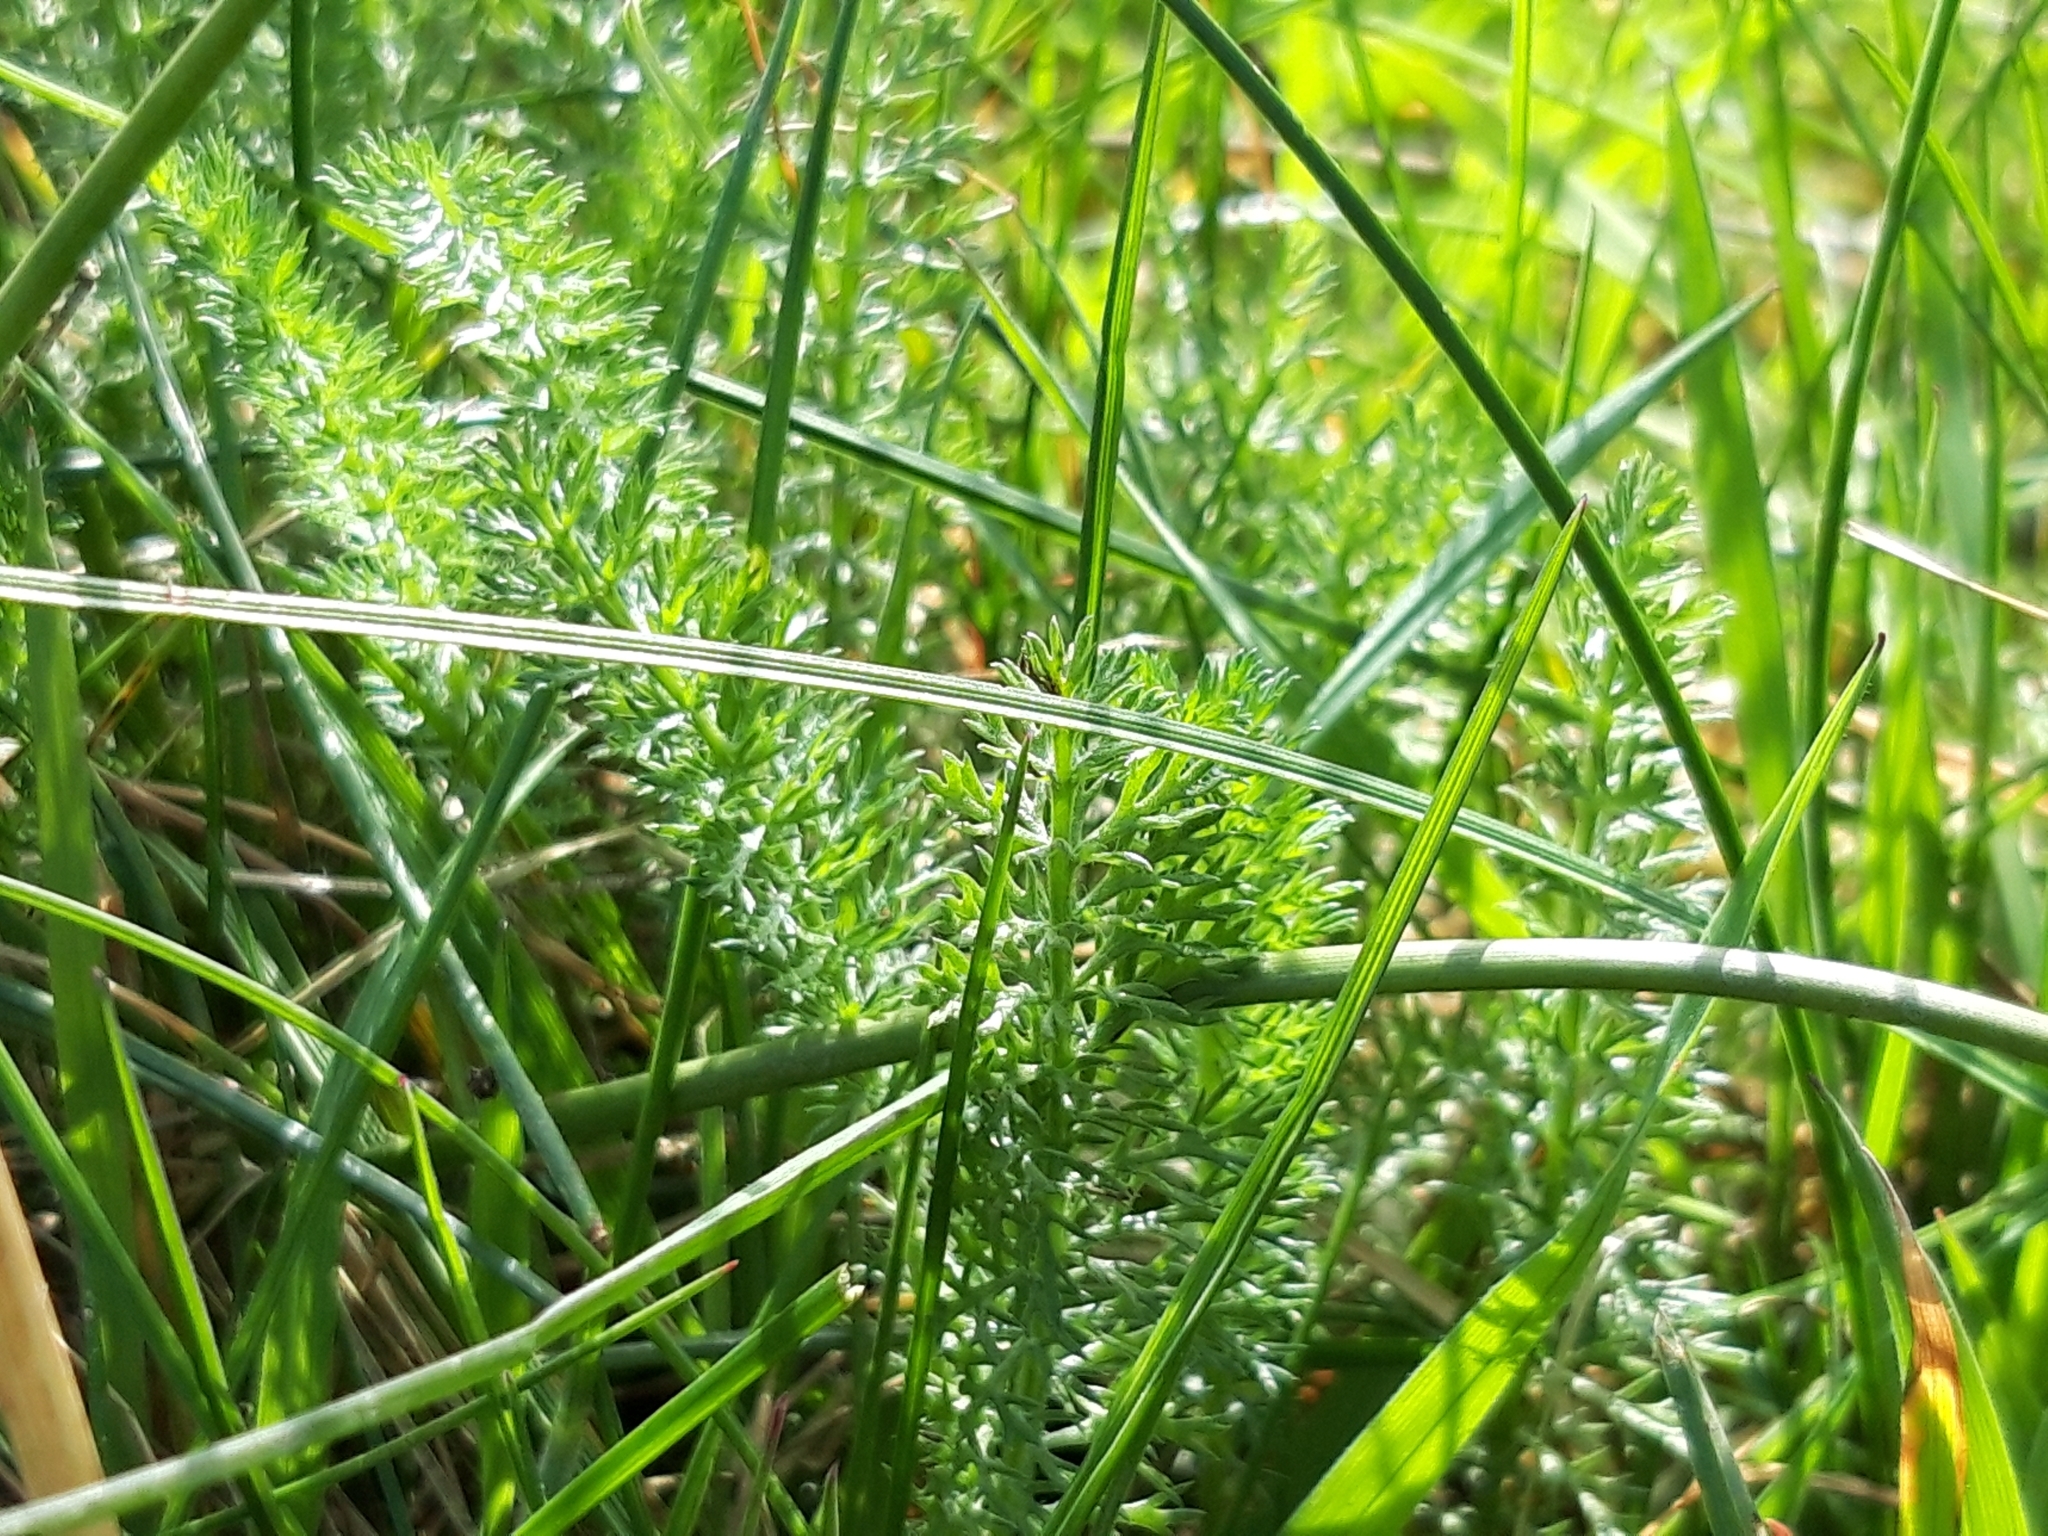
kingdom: Plantae
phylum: Tracheophyta
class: Magnoliopsida
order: Asterales
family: Asteraceae
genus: Achillea
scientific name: Achillea millefolium
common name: Yarrow
